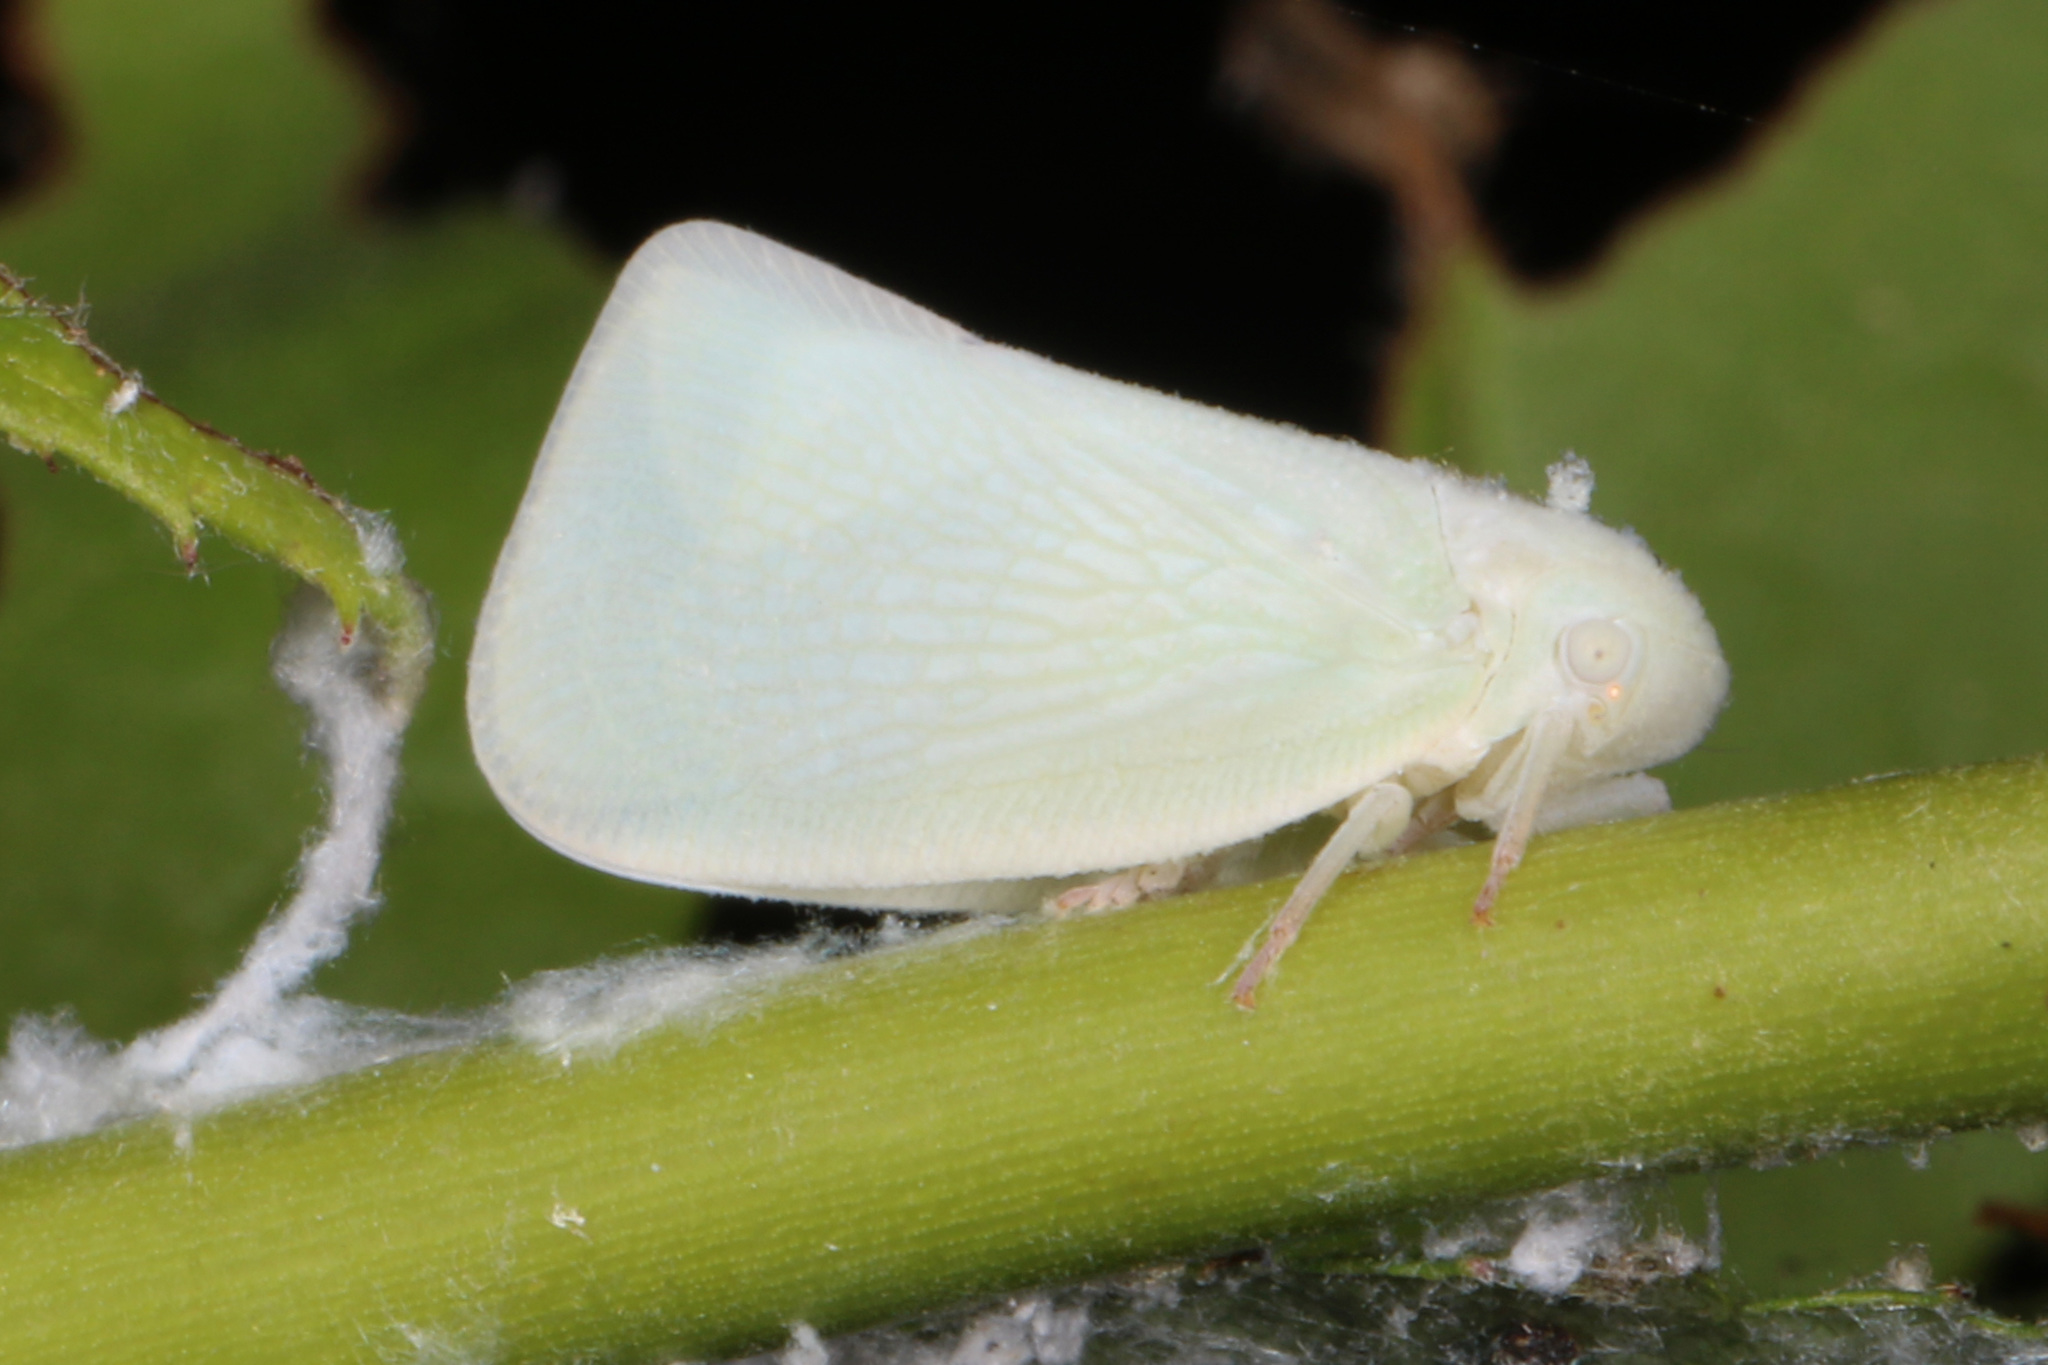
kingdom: Animalia
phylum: Arthropoda
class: Insecta
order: Hemiptera
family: Flatidae
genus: Flatormenis
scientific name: Flatormenis proxima
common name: Northern flatid planthopper
